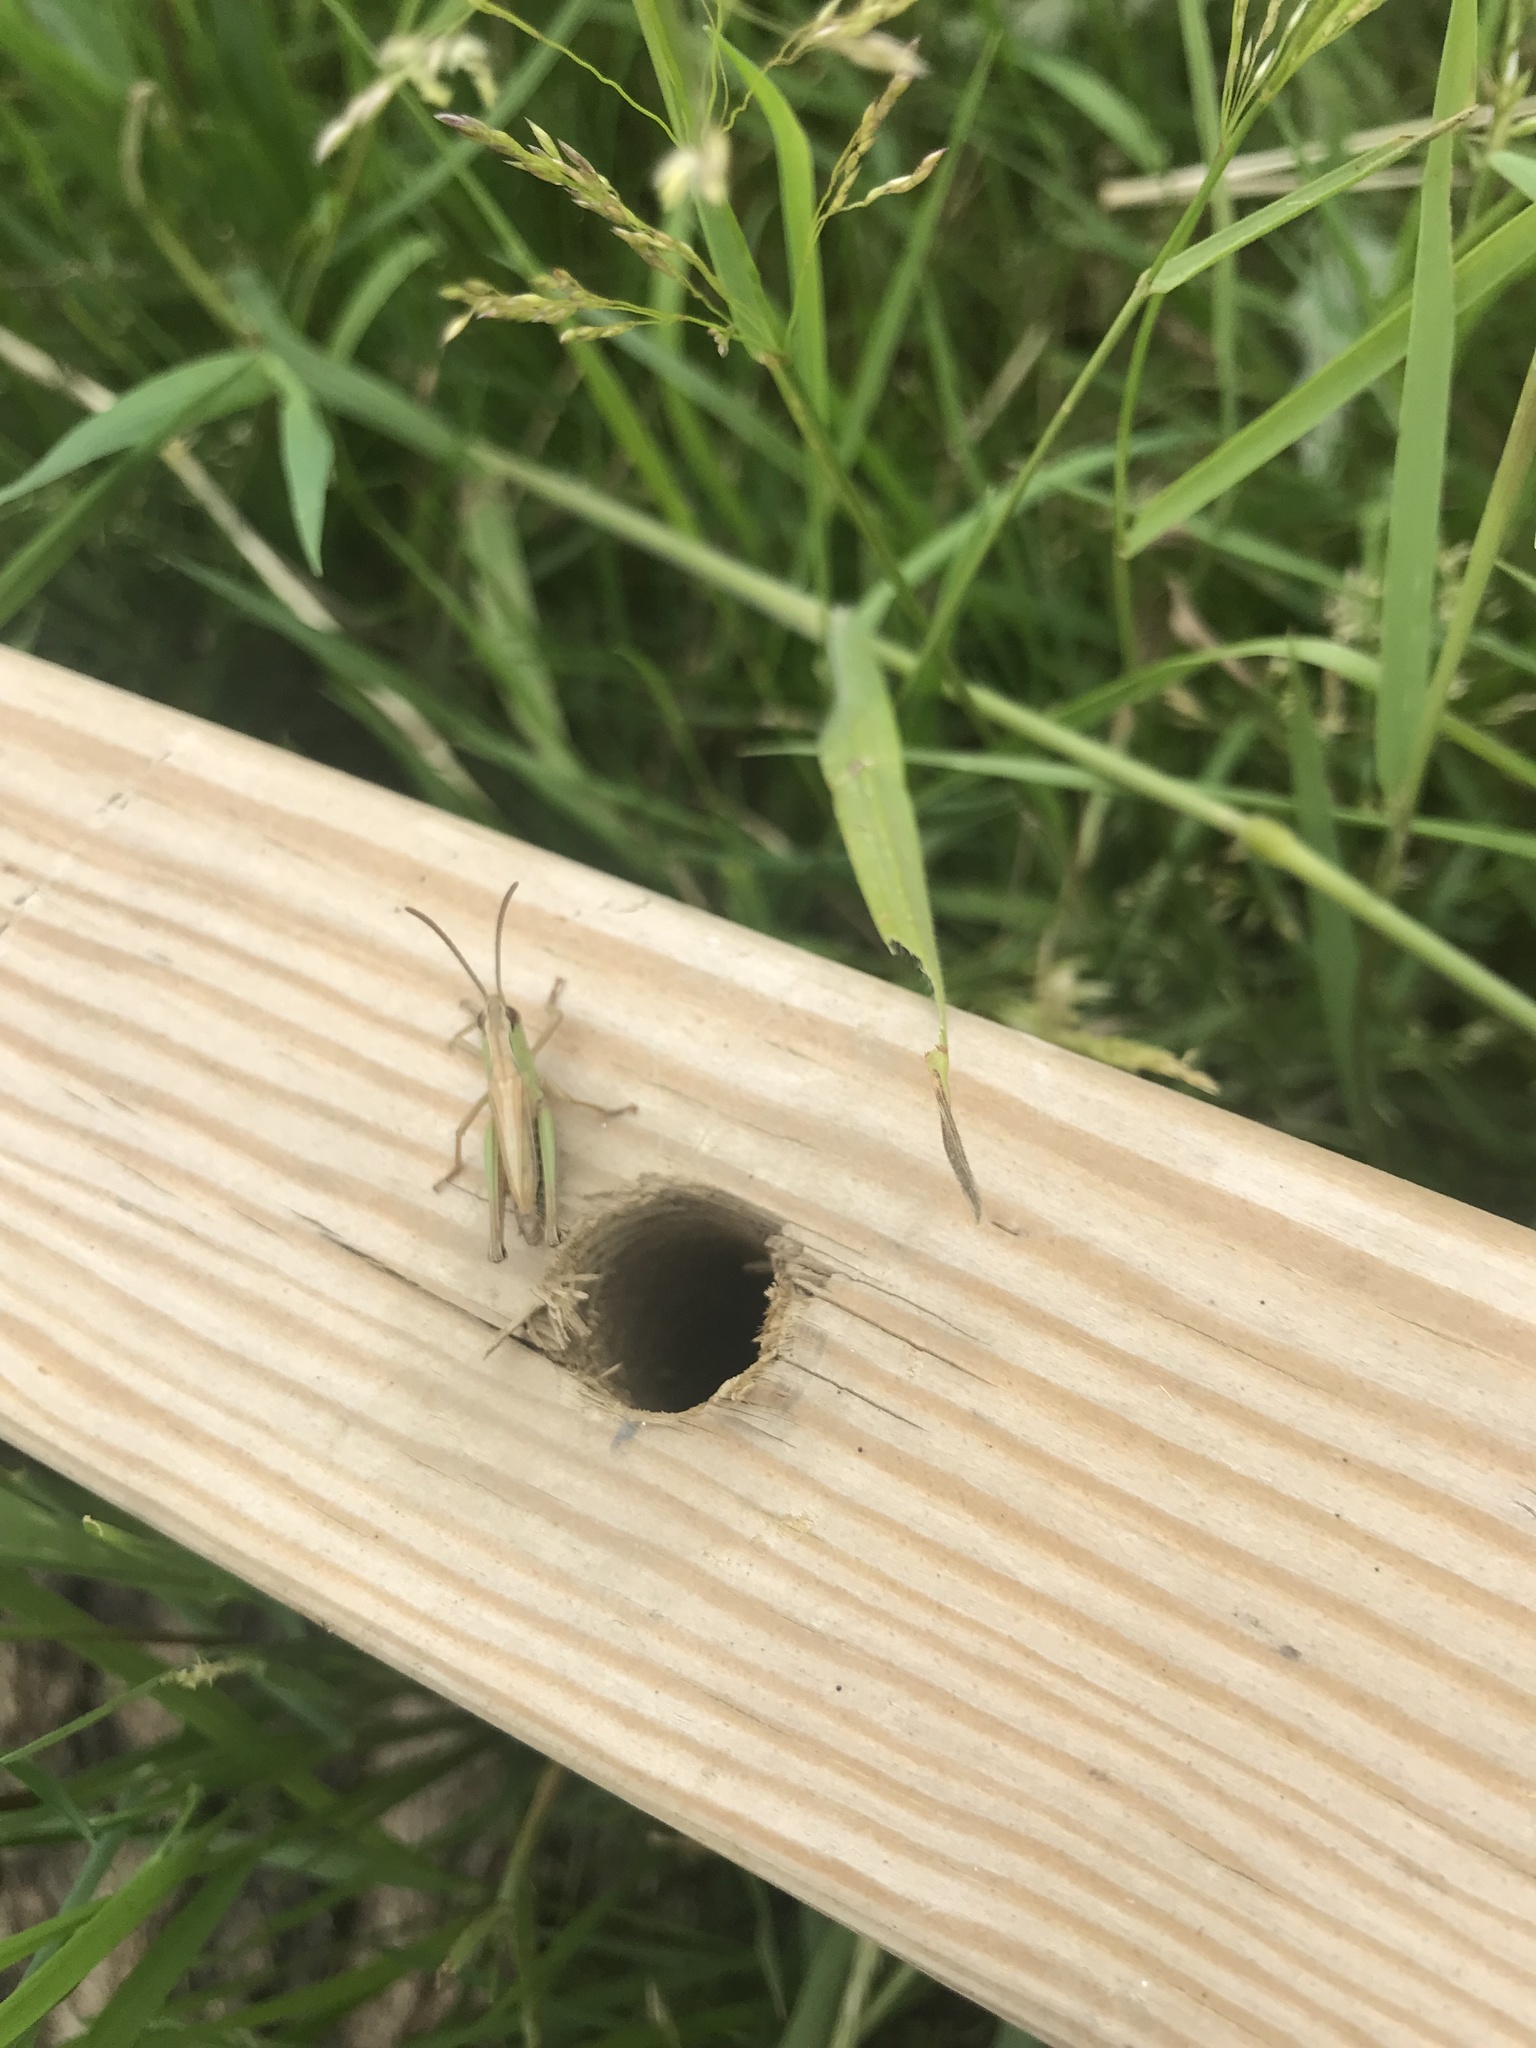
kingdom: Animalia
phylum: Arthropoda
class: Insecta
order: Orthoptera
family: Acrididae
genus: Pseudochorthippus
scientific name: Pseudochorthippus parallelus
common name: Meadow grasshopper
